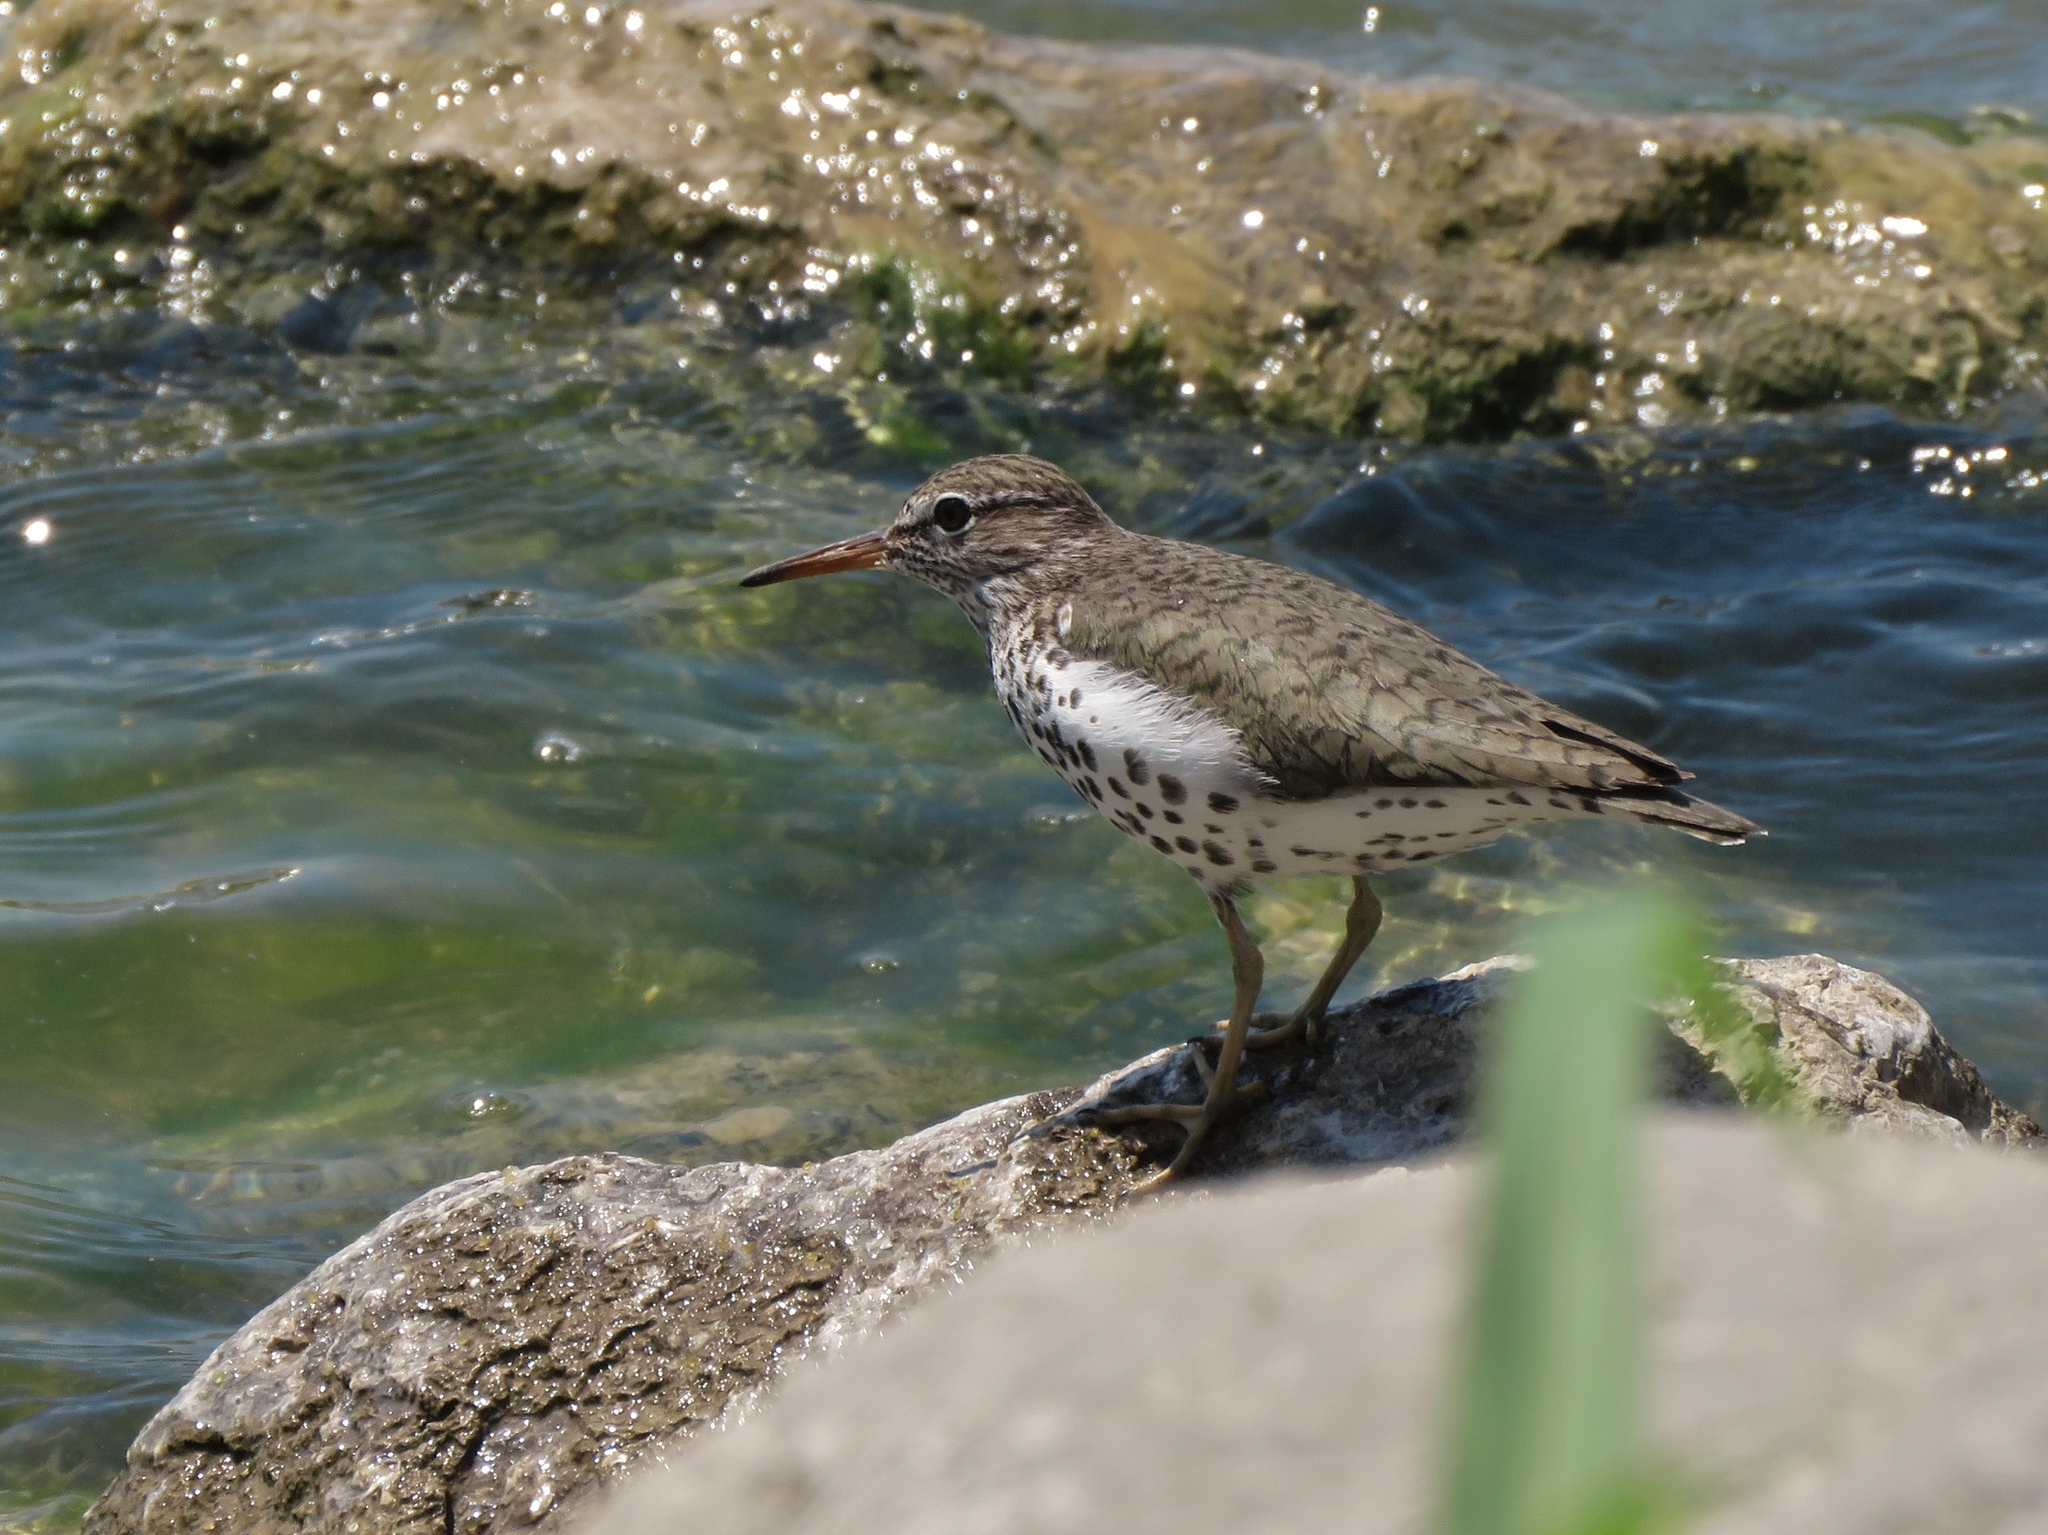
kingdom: Animalia
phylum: Chordata
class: Aves
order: Charadriiformes
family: Scolopacidae
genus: Actitis
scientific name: Actitis macularius
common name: Spotted sandpiper
